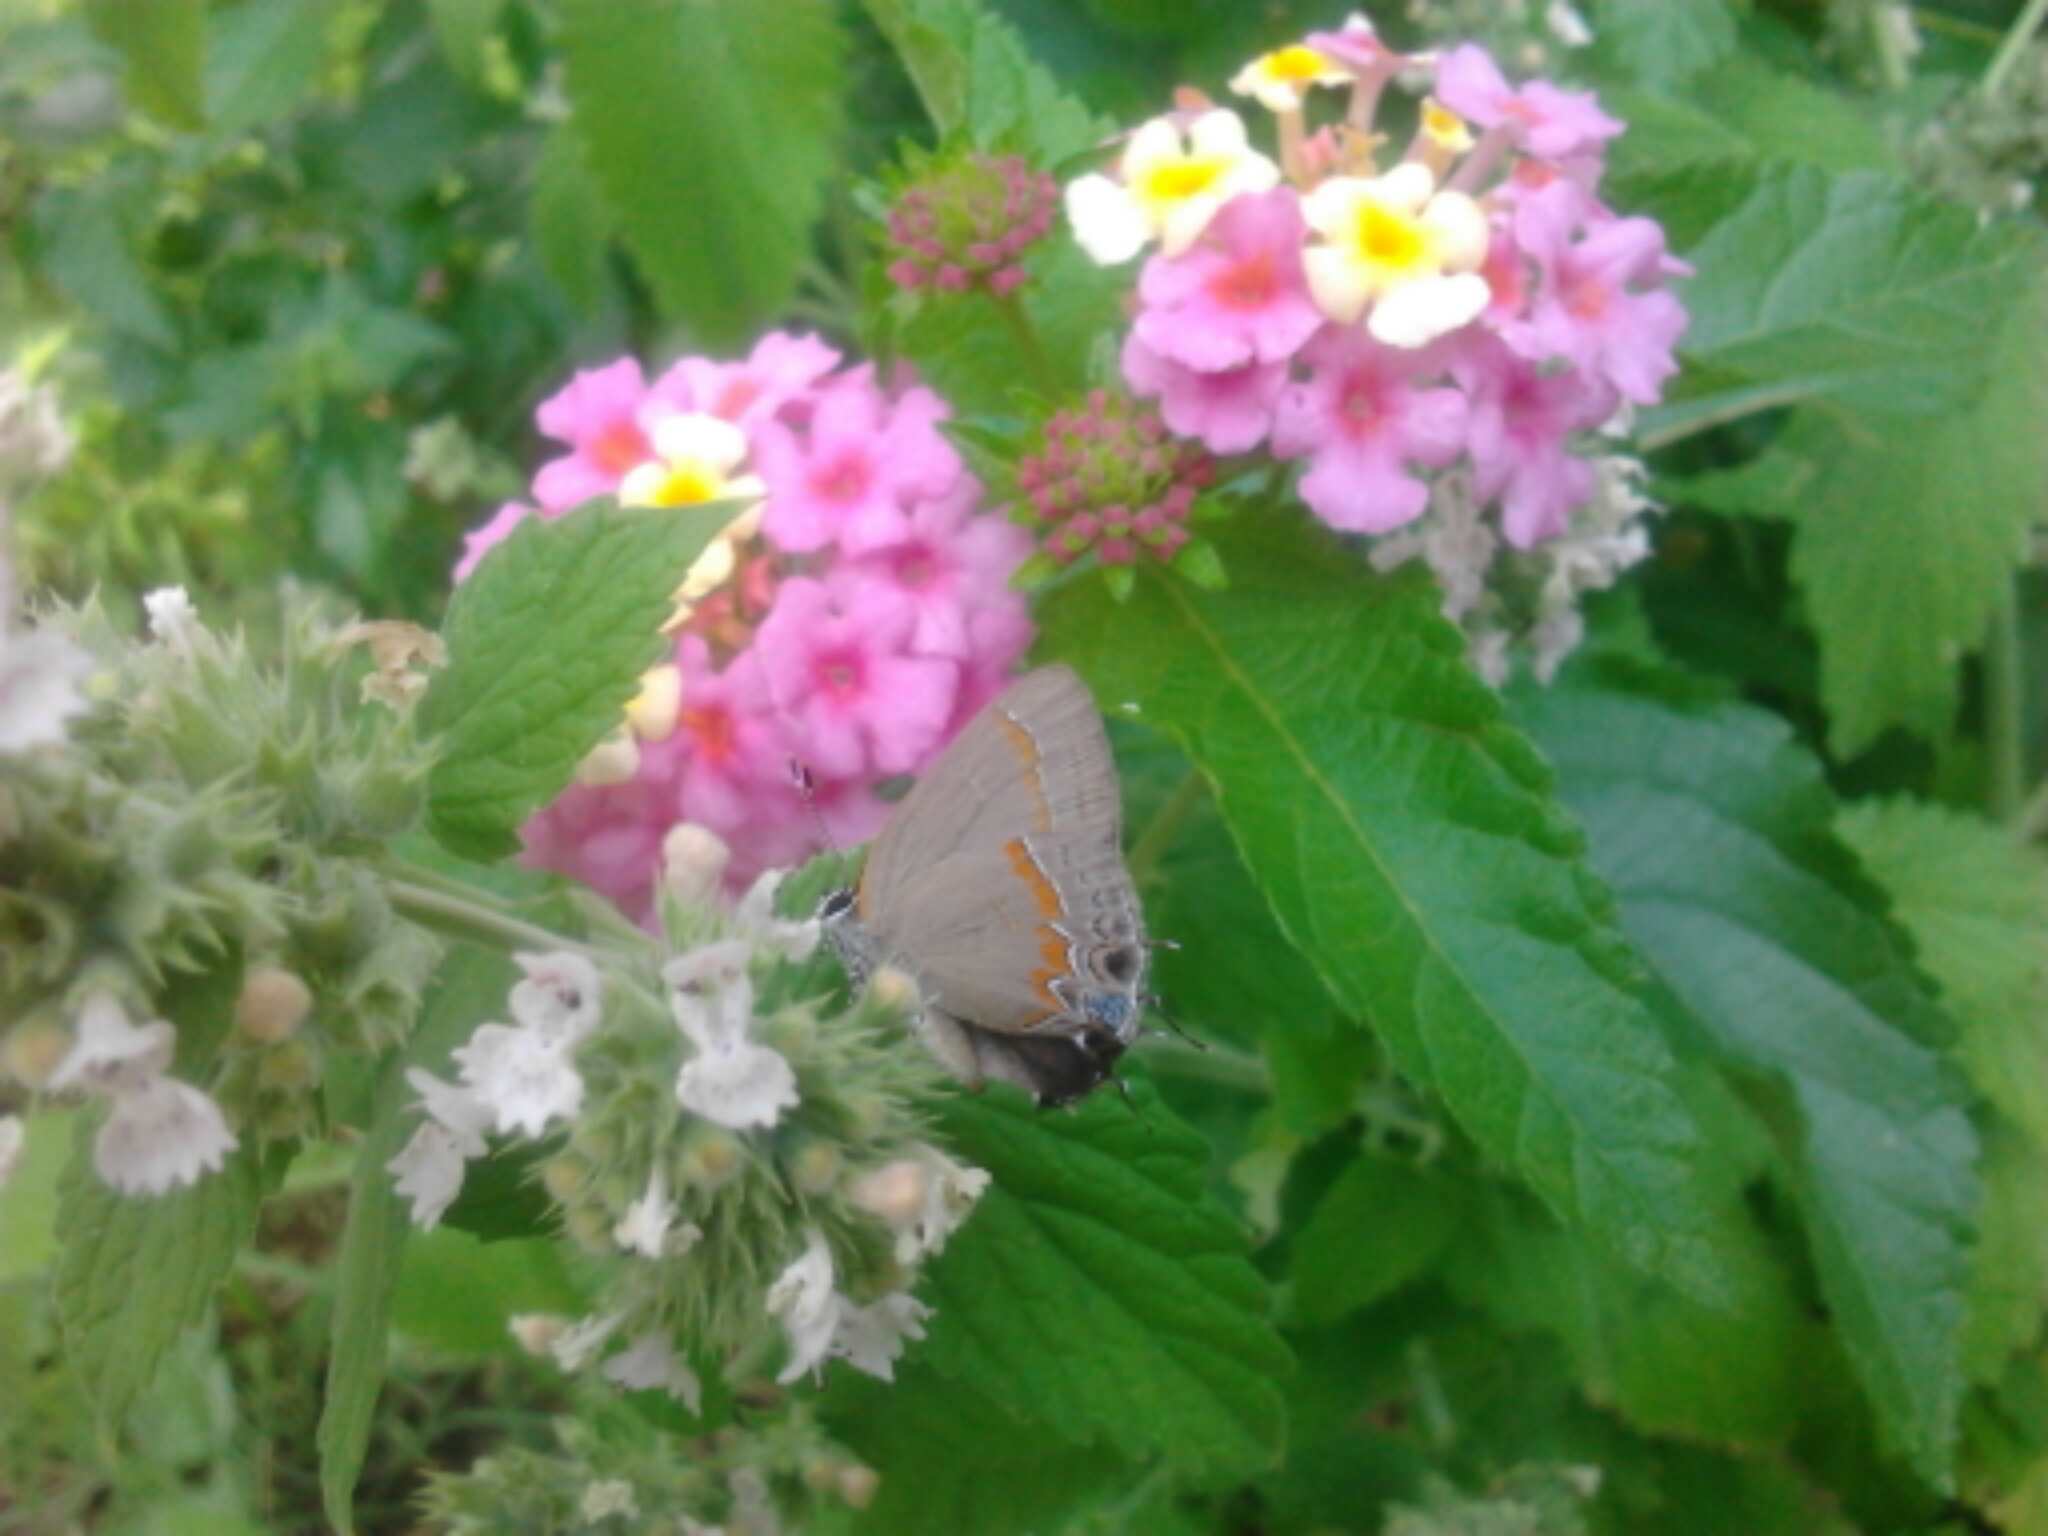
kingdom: Animalia
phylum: Arthropoda
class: Insecta
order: Lepidoptera
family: Lycaenidae
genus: Calycopis
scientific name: Calycopis cecrops
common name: Red-banded hairstreak
